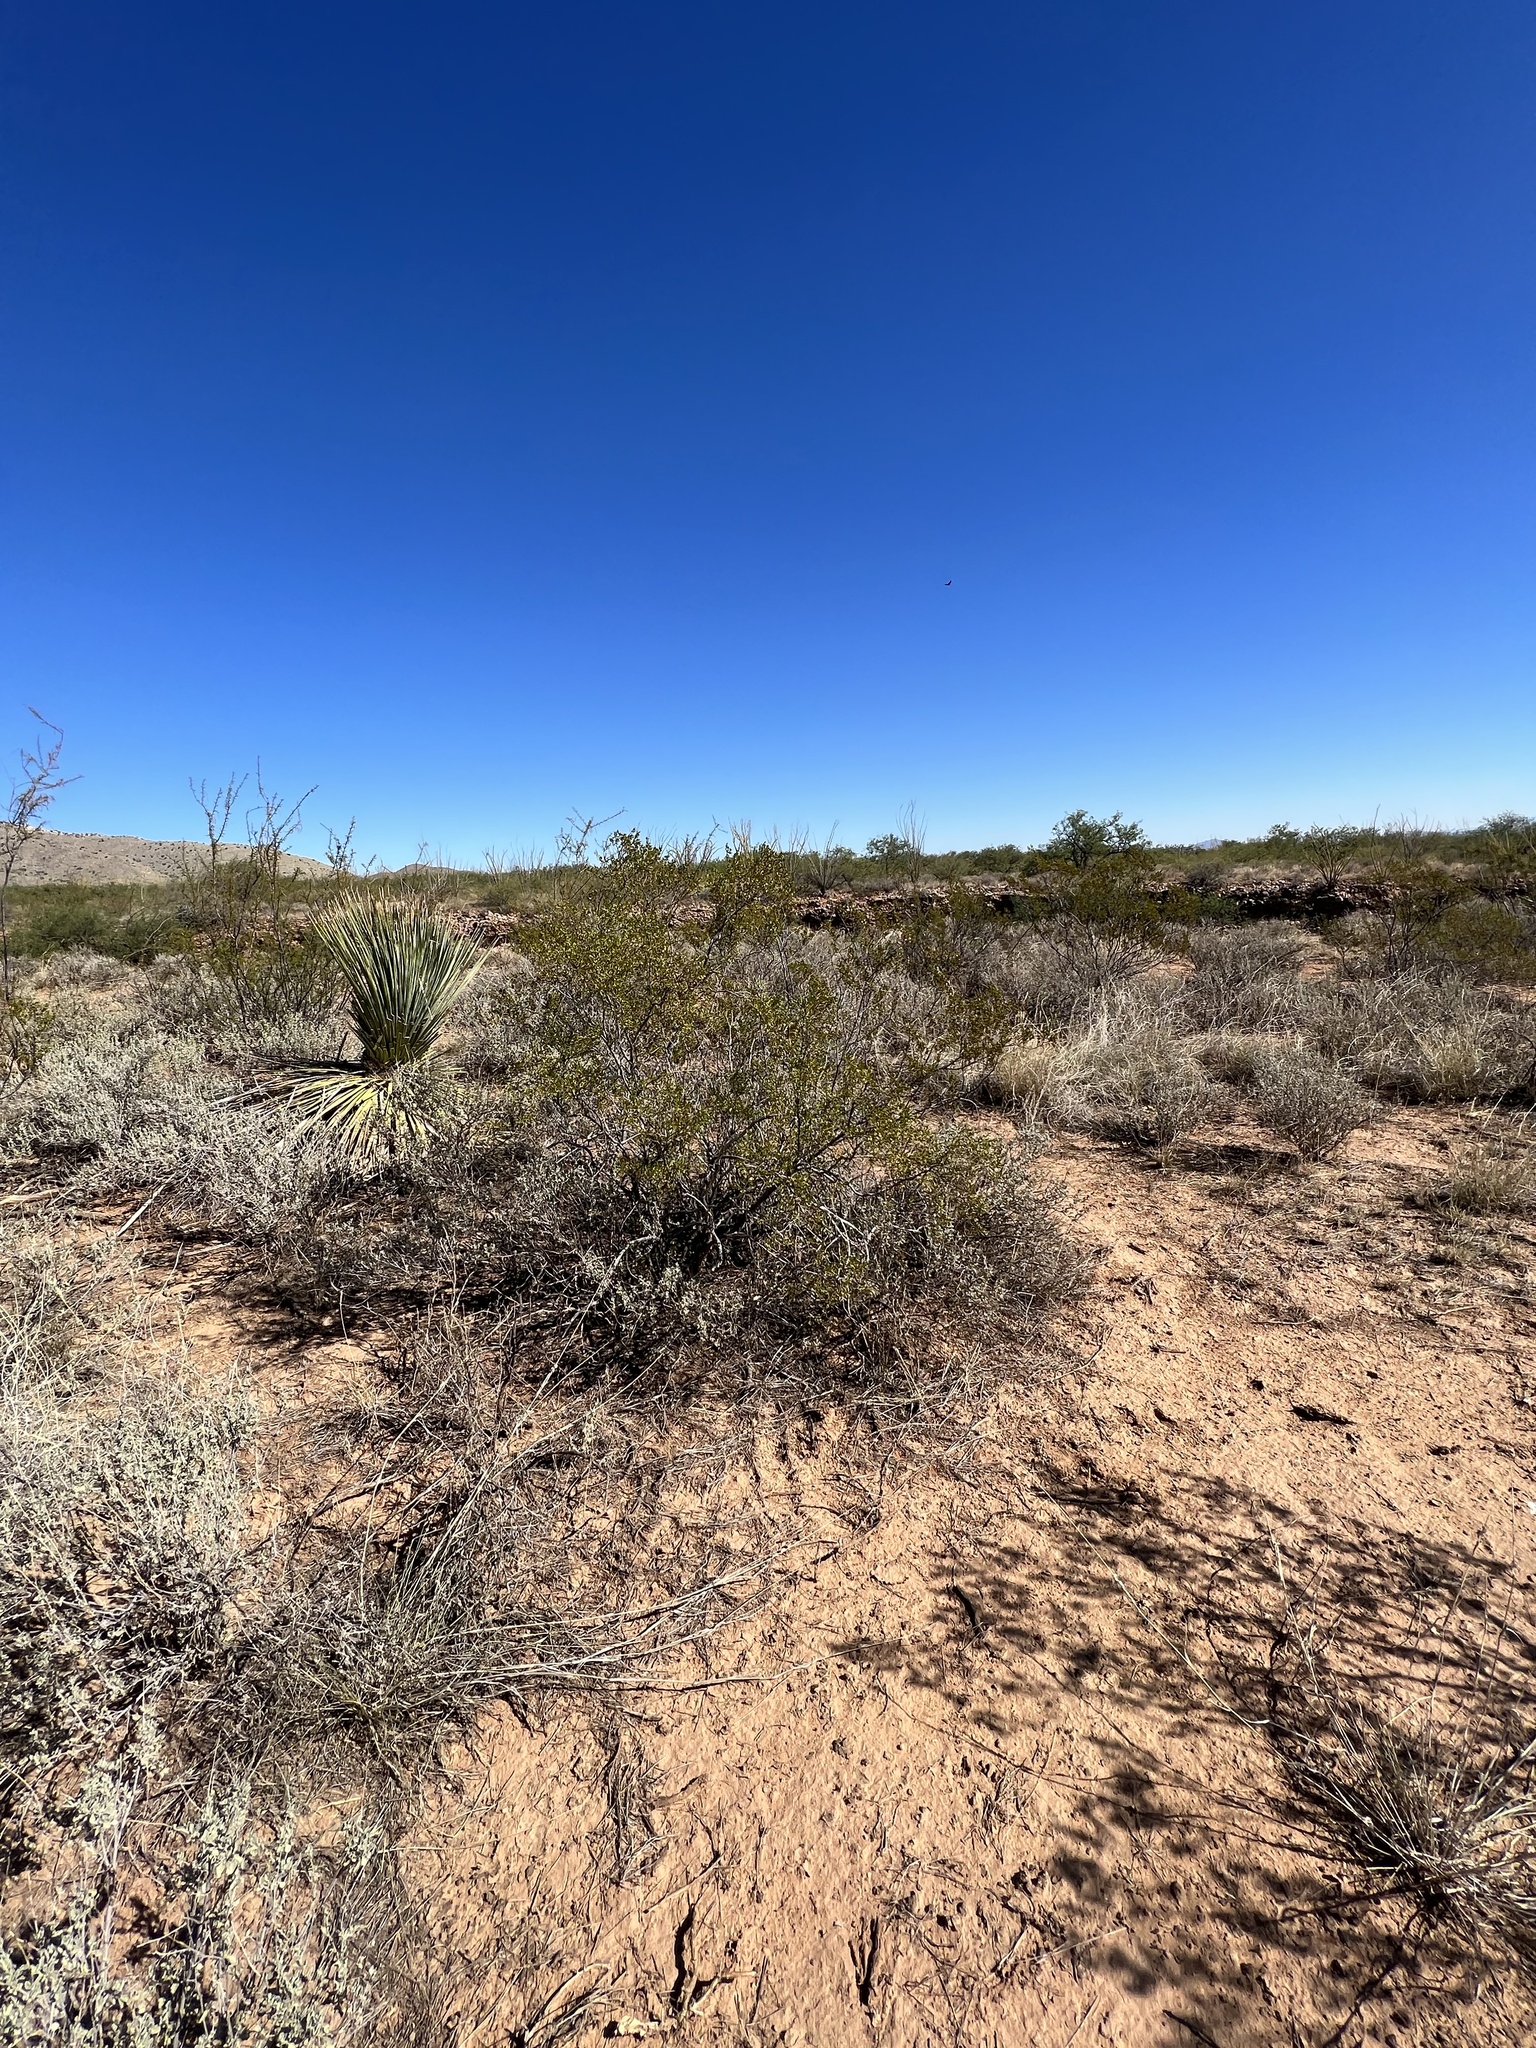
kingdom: Plantae
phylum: Tracheophyta
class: Magnoliopsida
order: Zygophyllales
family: Zygophyllaceae
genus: Larrea
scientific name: Larrea tridentata
